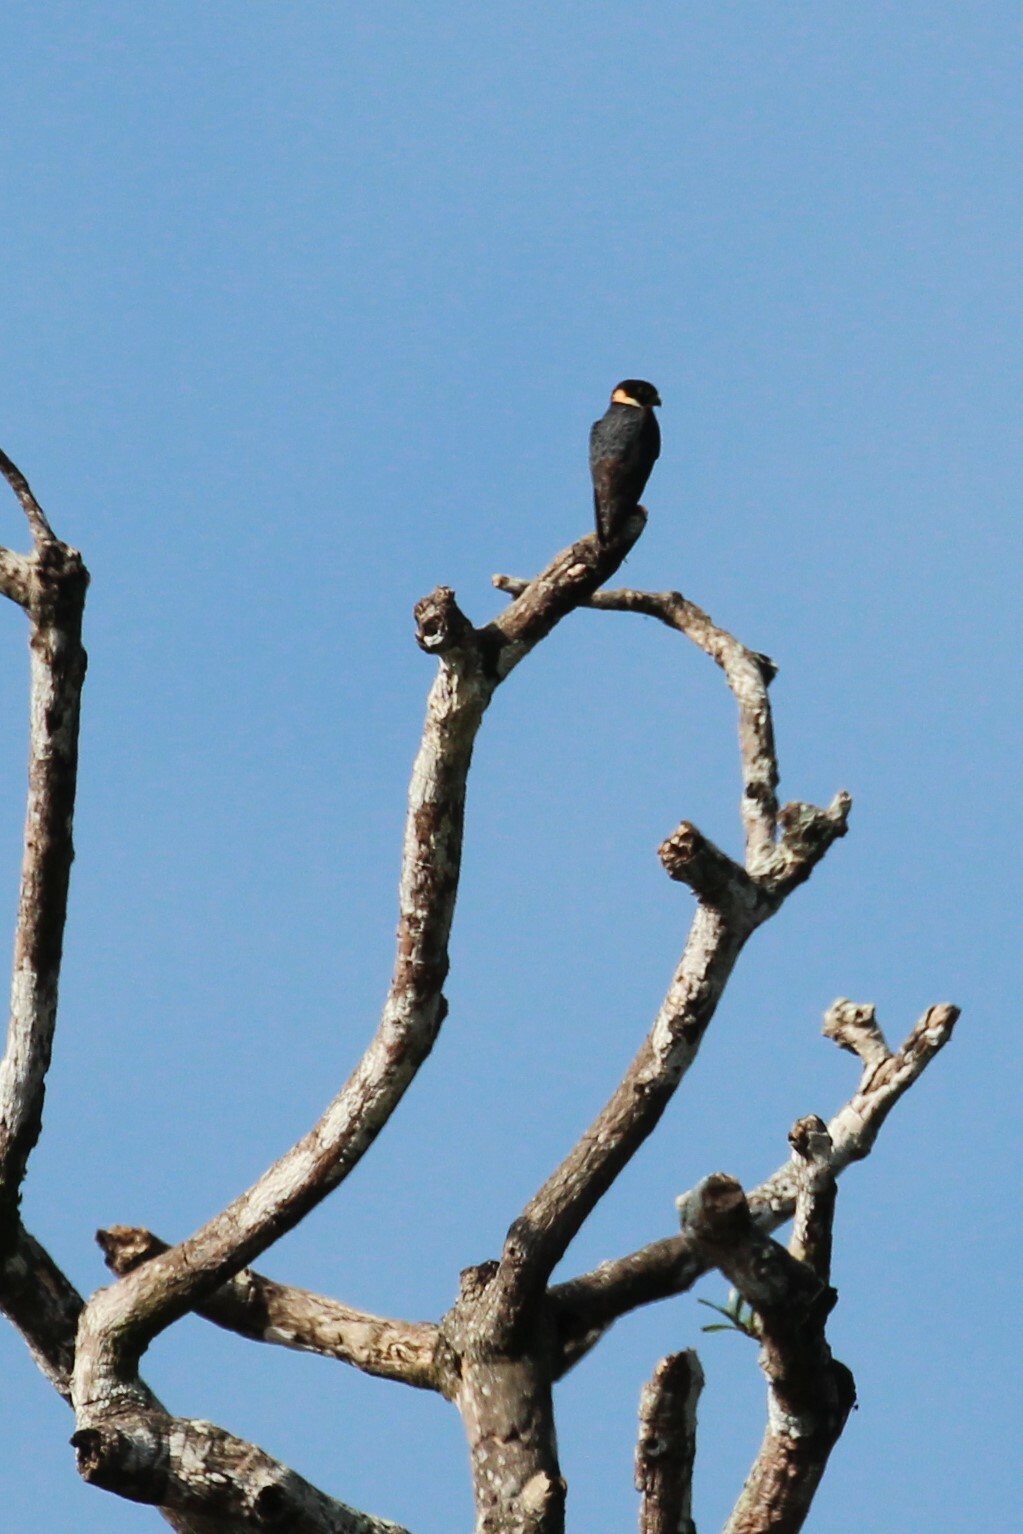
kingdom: Animalia
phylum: Chordata
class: Aves
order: Falconiformes
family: Falconidae
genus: Falco
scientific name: Falco rufigularis
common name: Bat falcon
